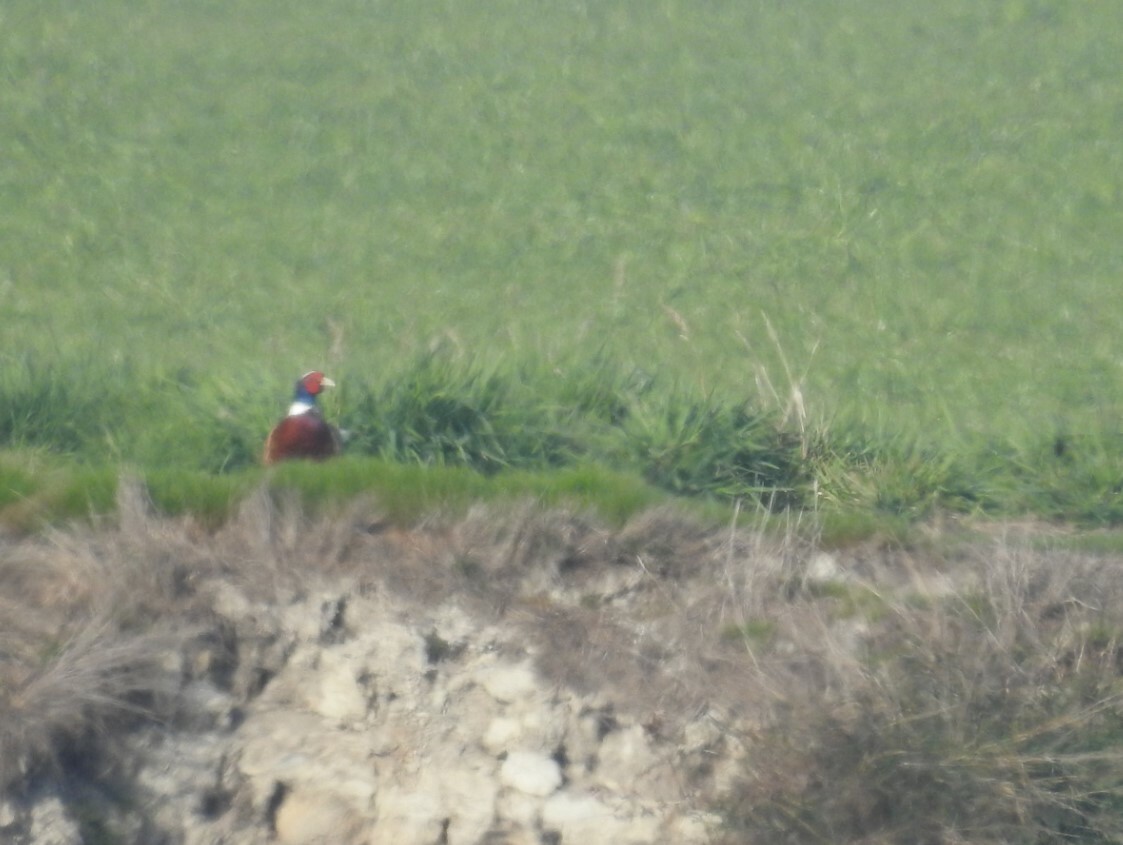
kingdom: Animalia
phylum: Chordata
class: Aves
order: Galliformes
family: Phasianidae
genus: Phasianus
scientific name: Phasianus colchicus
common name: Common pheasant
